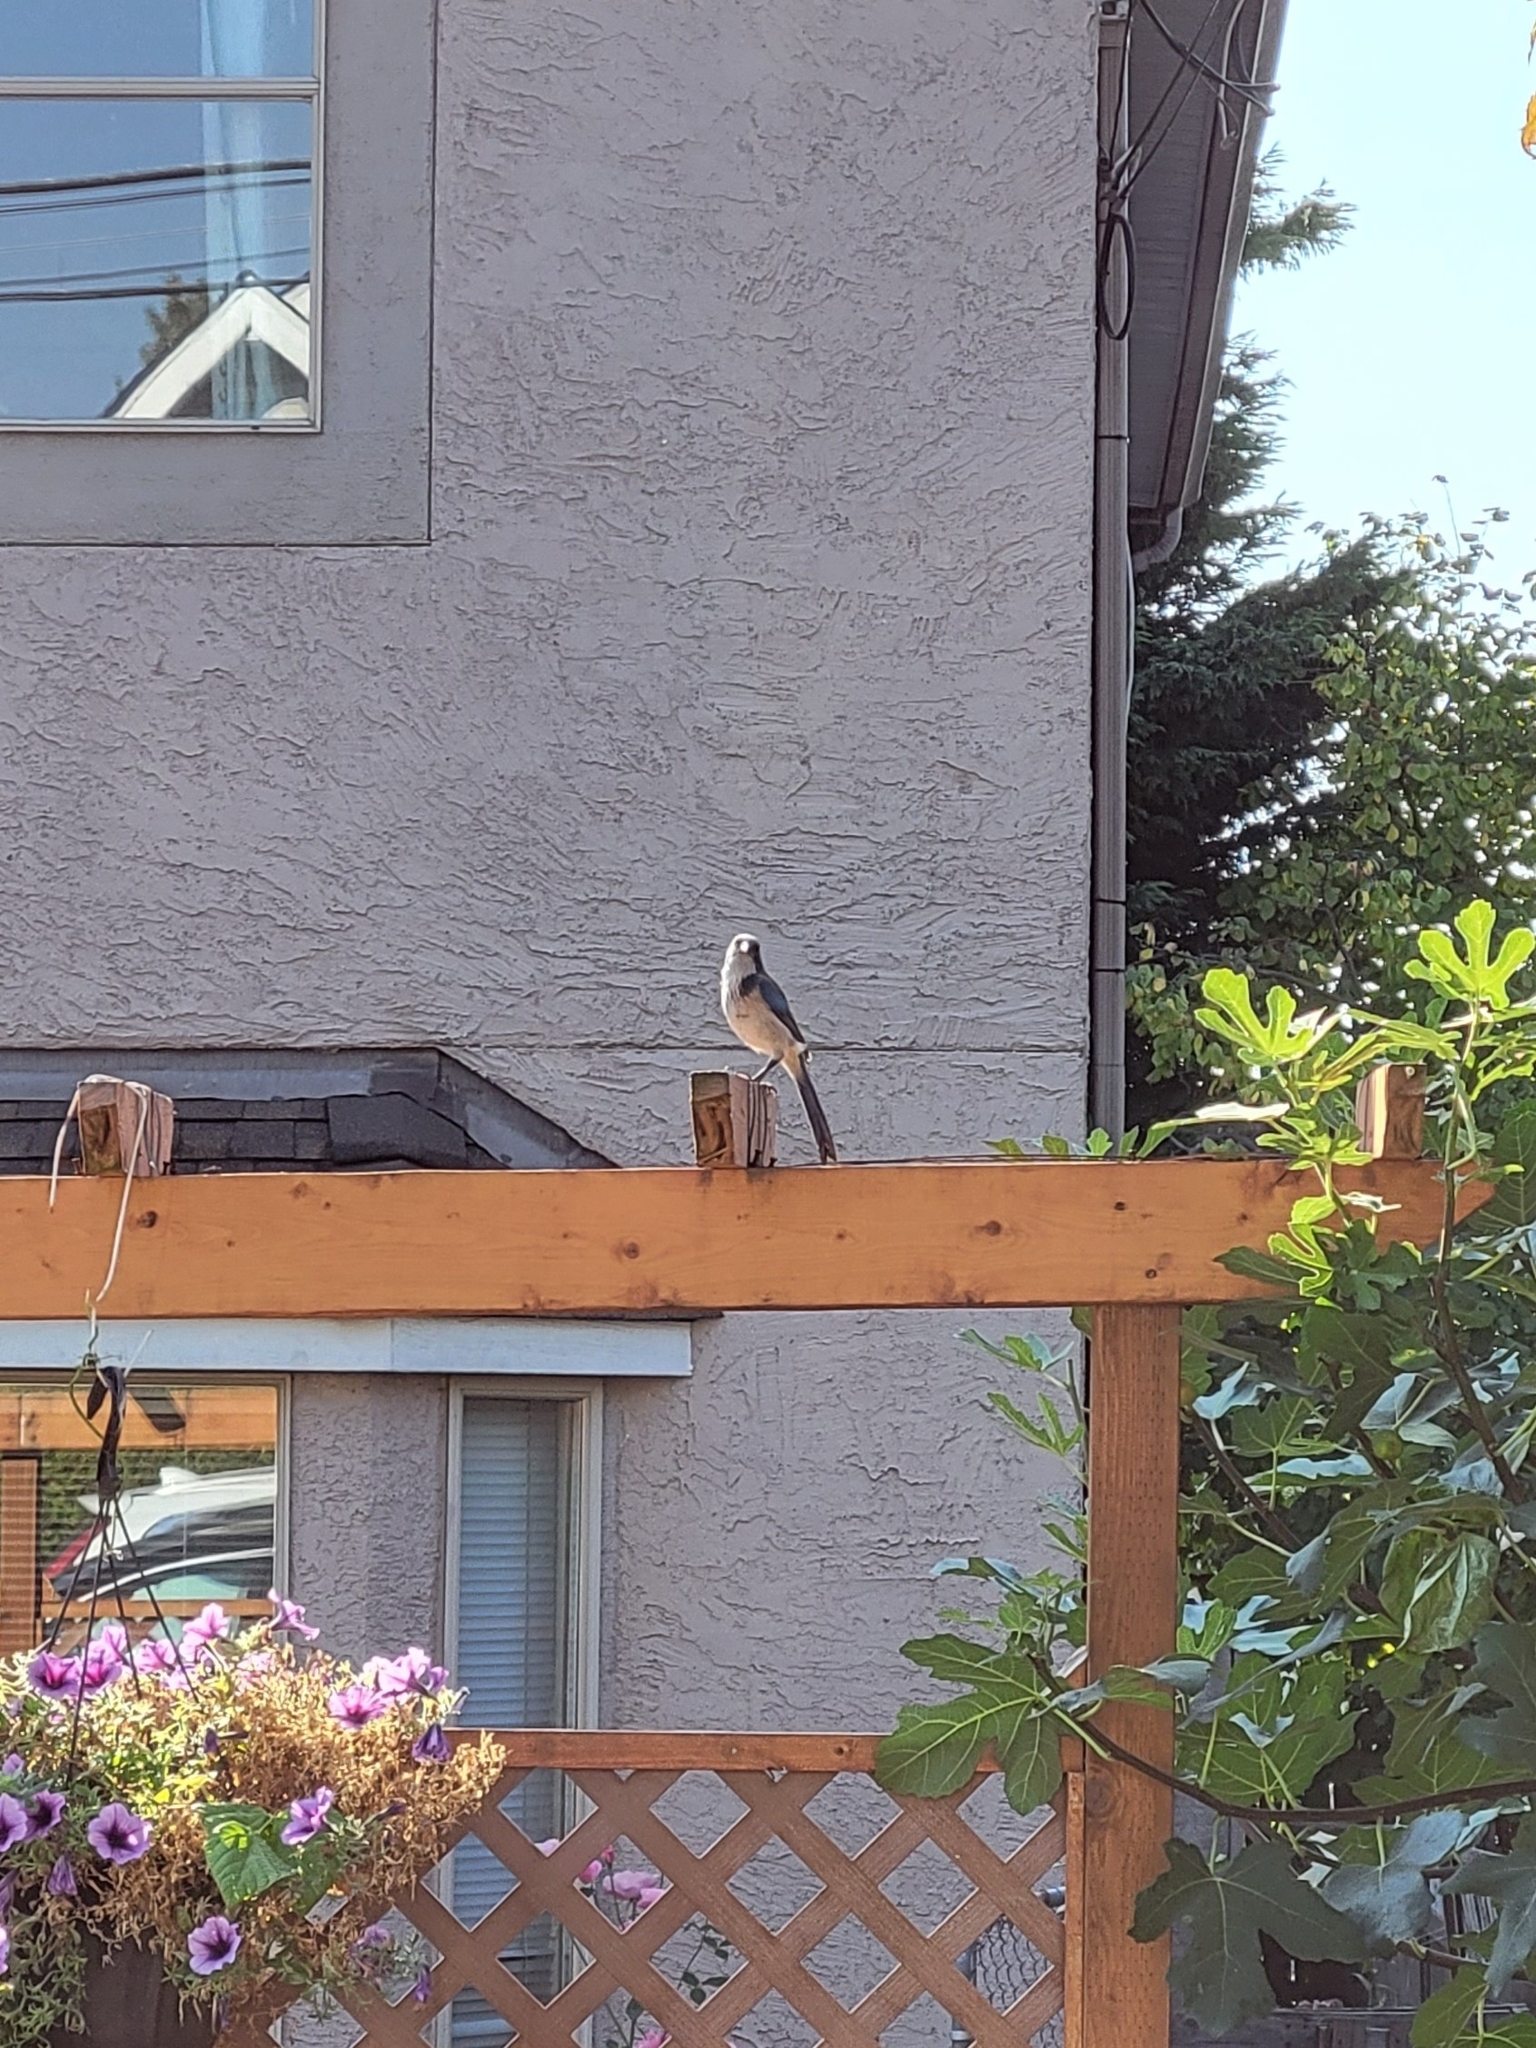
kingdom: Animalia
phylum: Chordata
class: Aves
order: Passeriformes
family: Corvidae
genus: Aphelocoma
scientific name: Aphelocoma californica
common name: California scrub-jay
